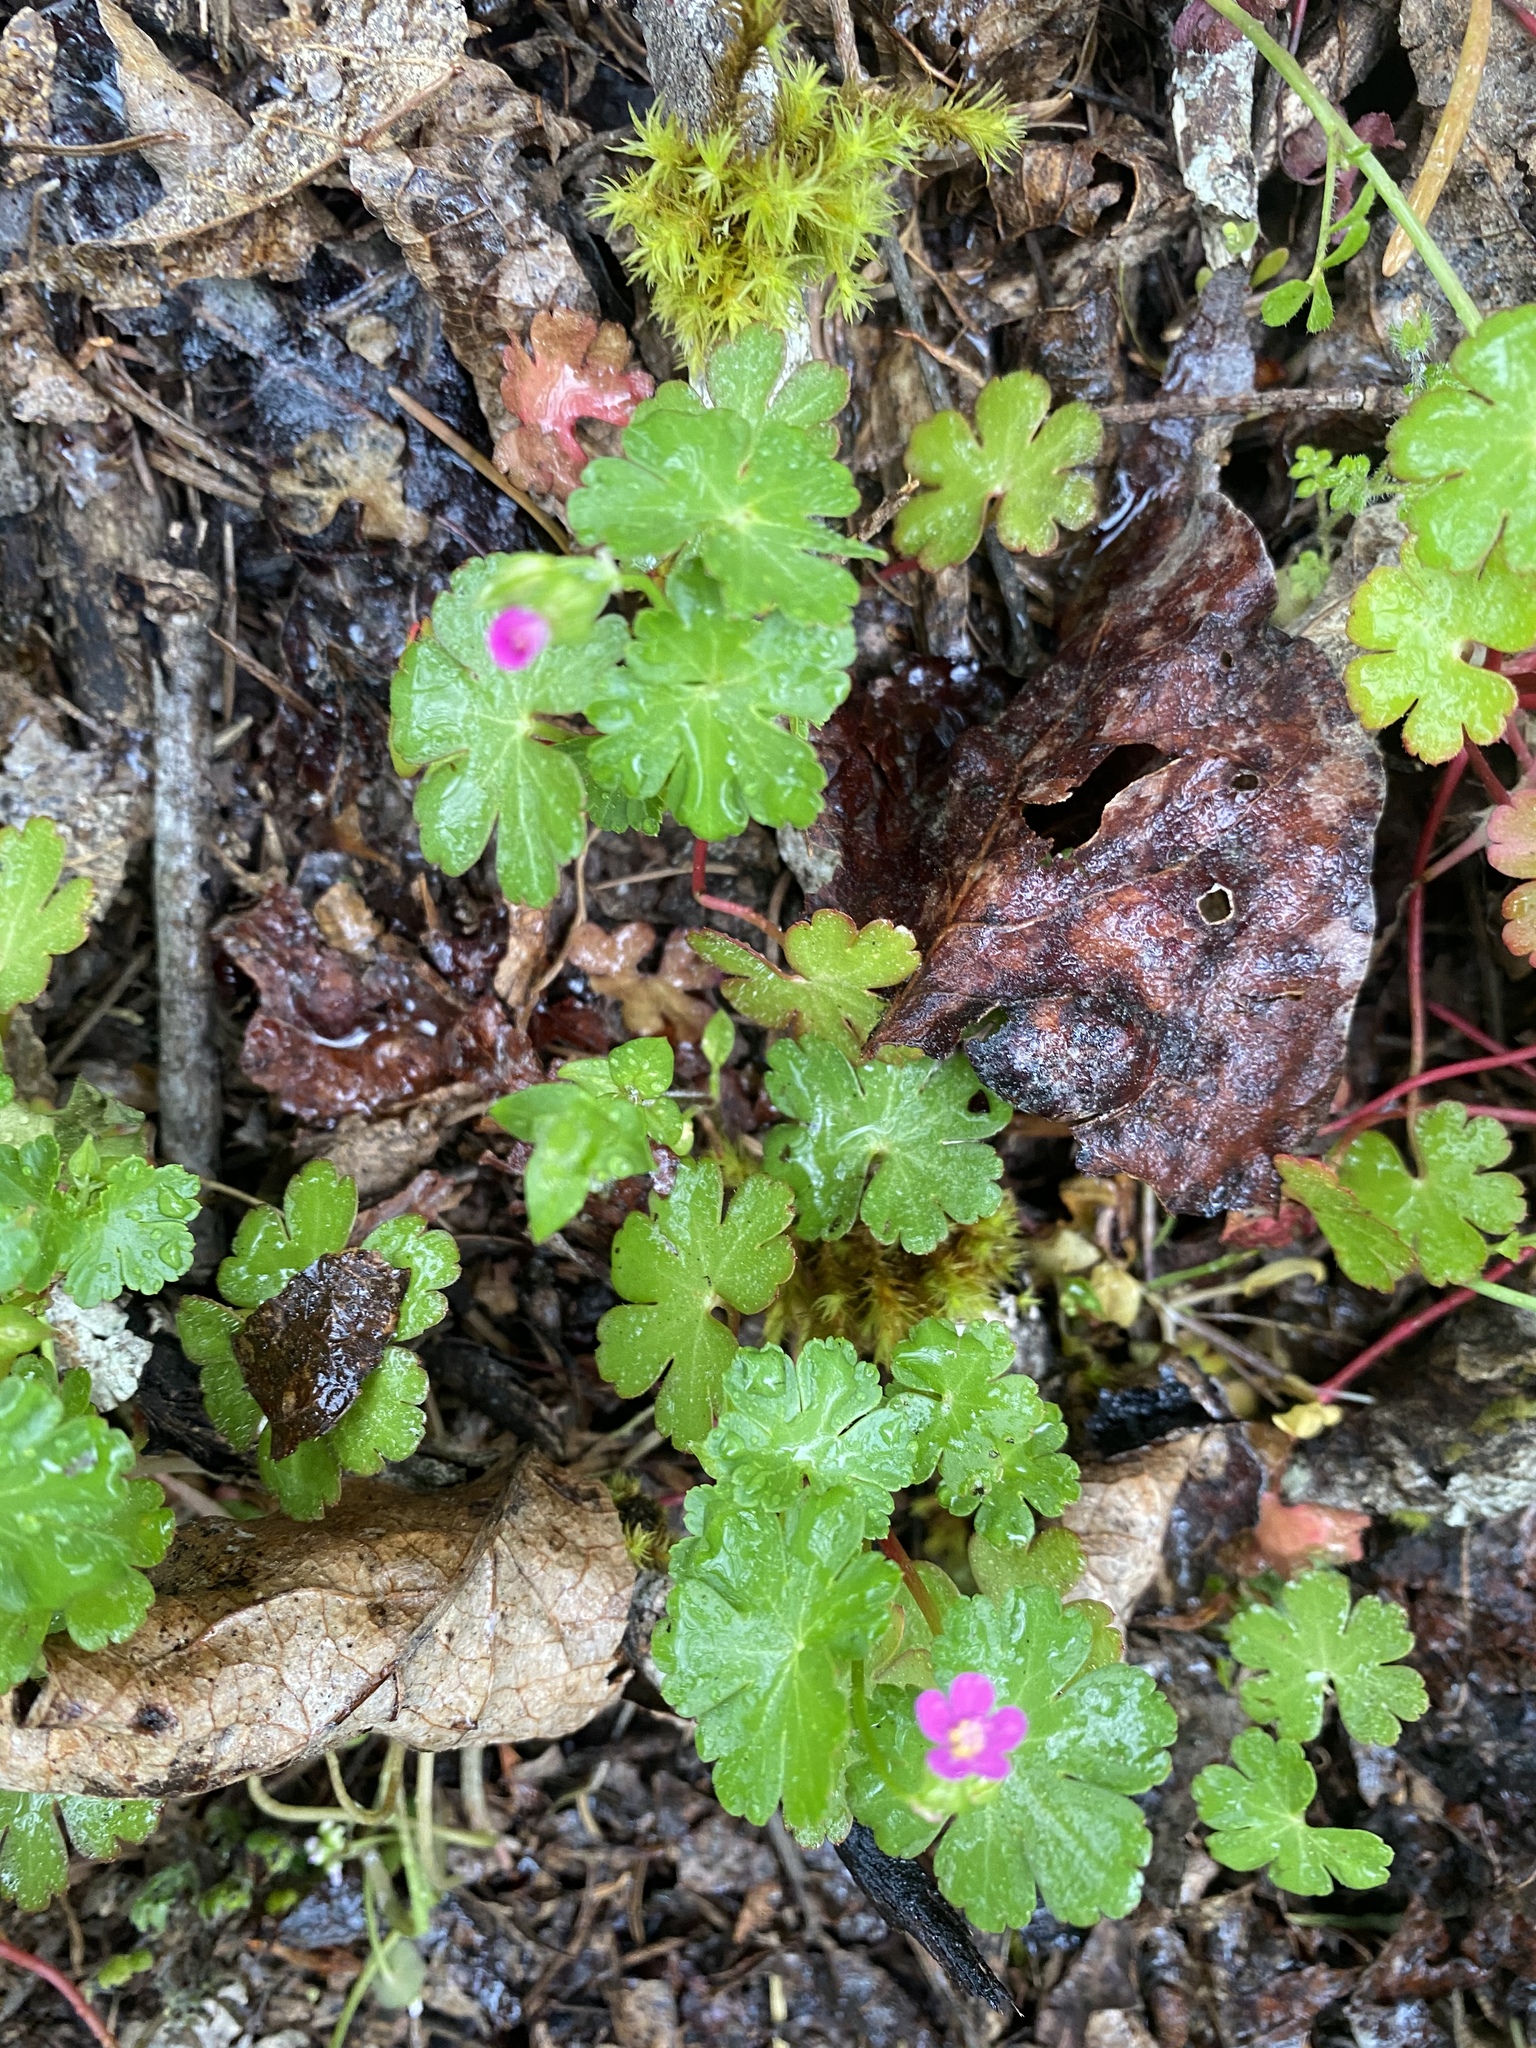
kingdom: Plantae
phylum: Tracheophyta
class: Magnoliopsida
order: Geraniales
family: Geraniaceae
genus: Geranium
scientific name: Geranium lucidum
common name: Shining crane's-bill
